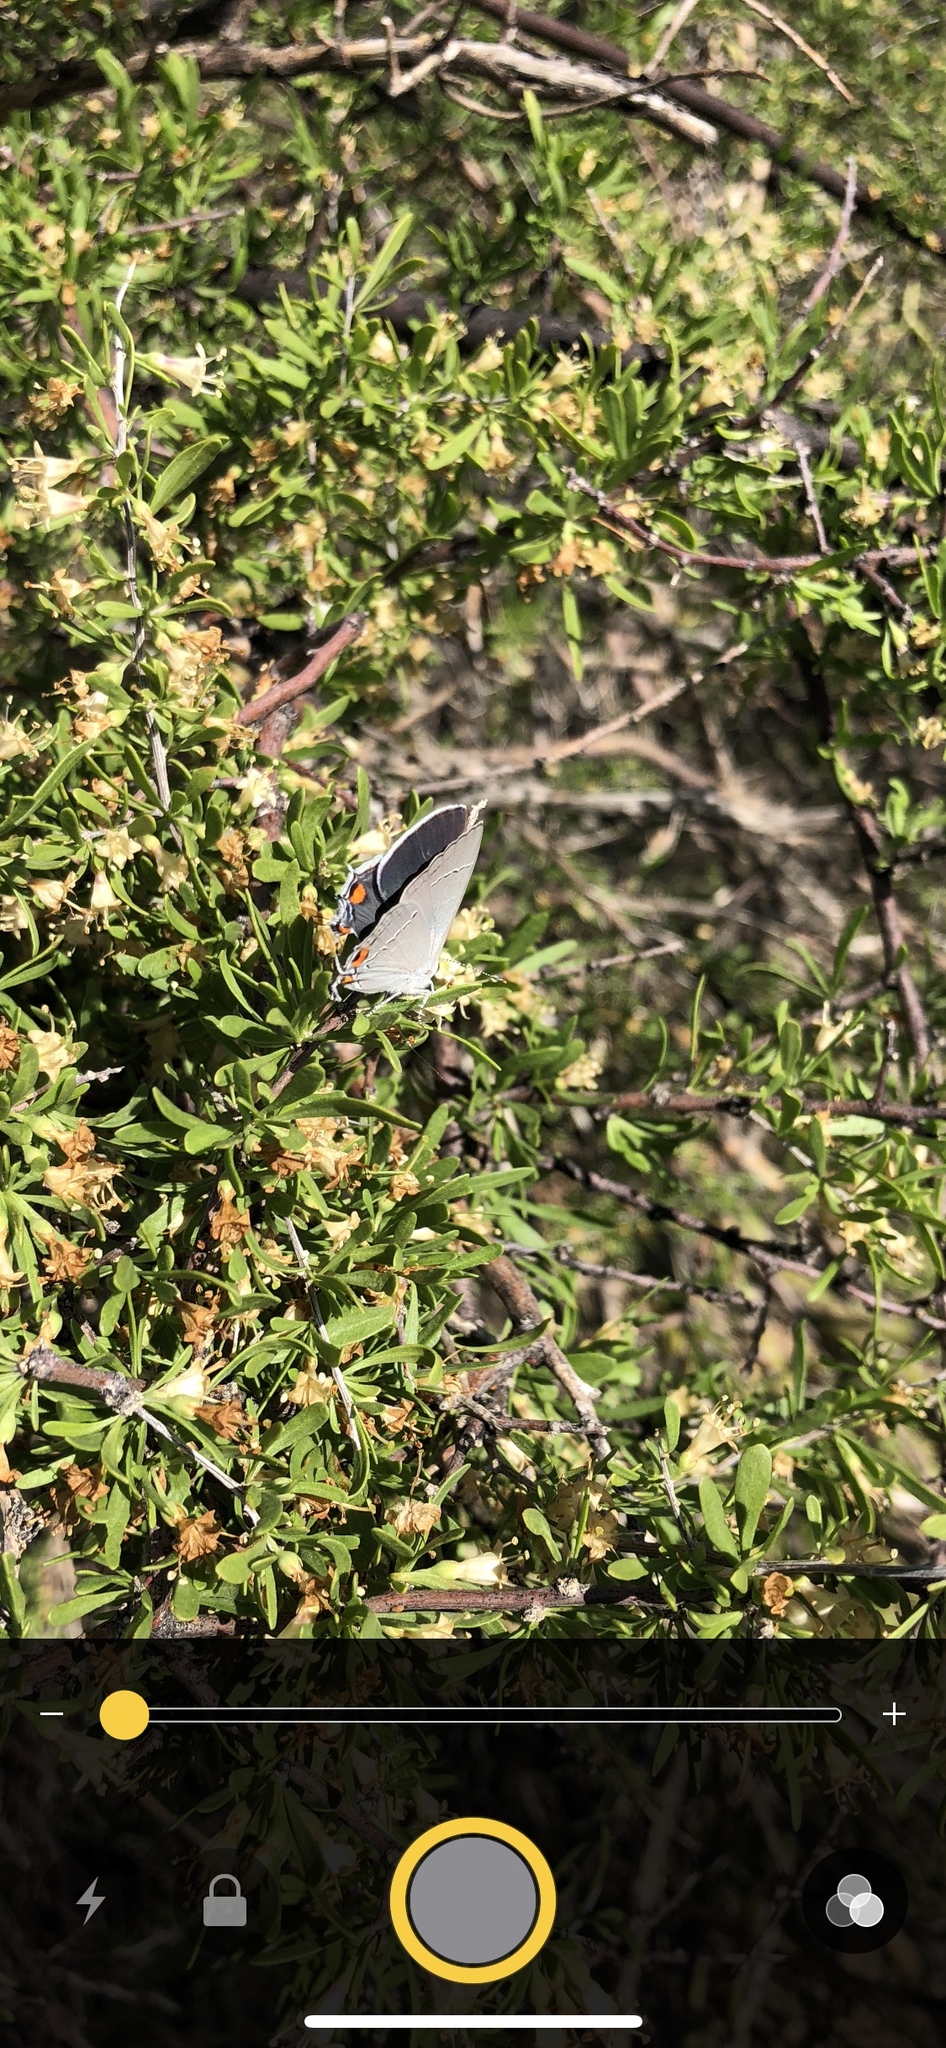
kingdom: Animalia
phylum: Arthropoda
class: Insecta
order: Lepidoptera
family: Lycaenidae
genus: Strymon
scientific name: Strymon melinus
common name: Gray hairstreak
